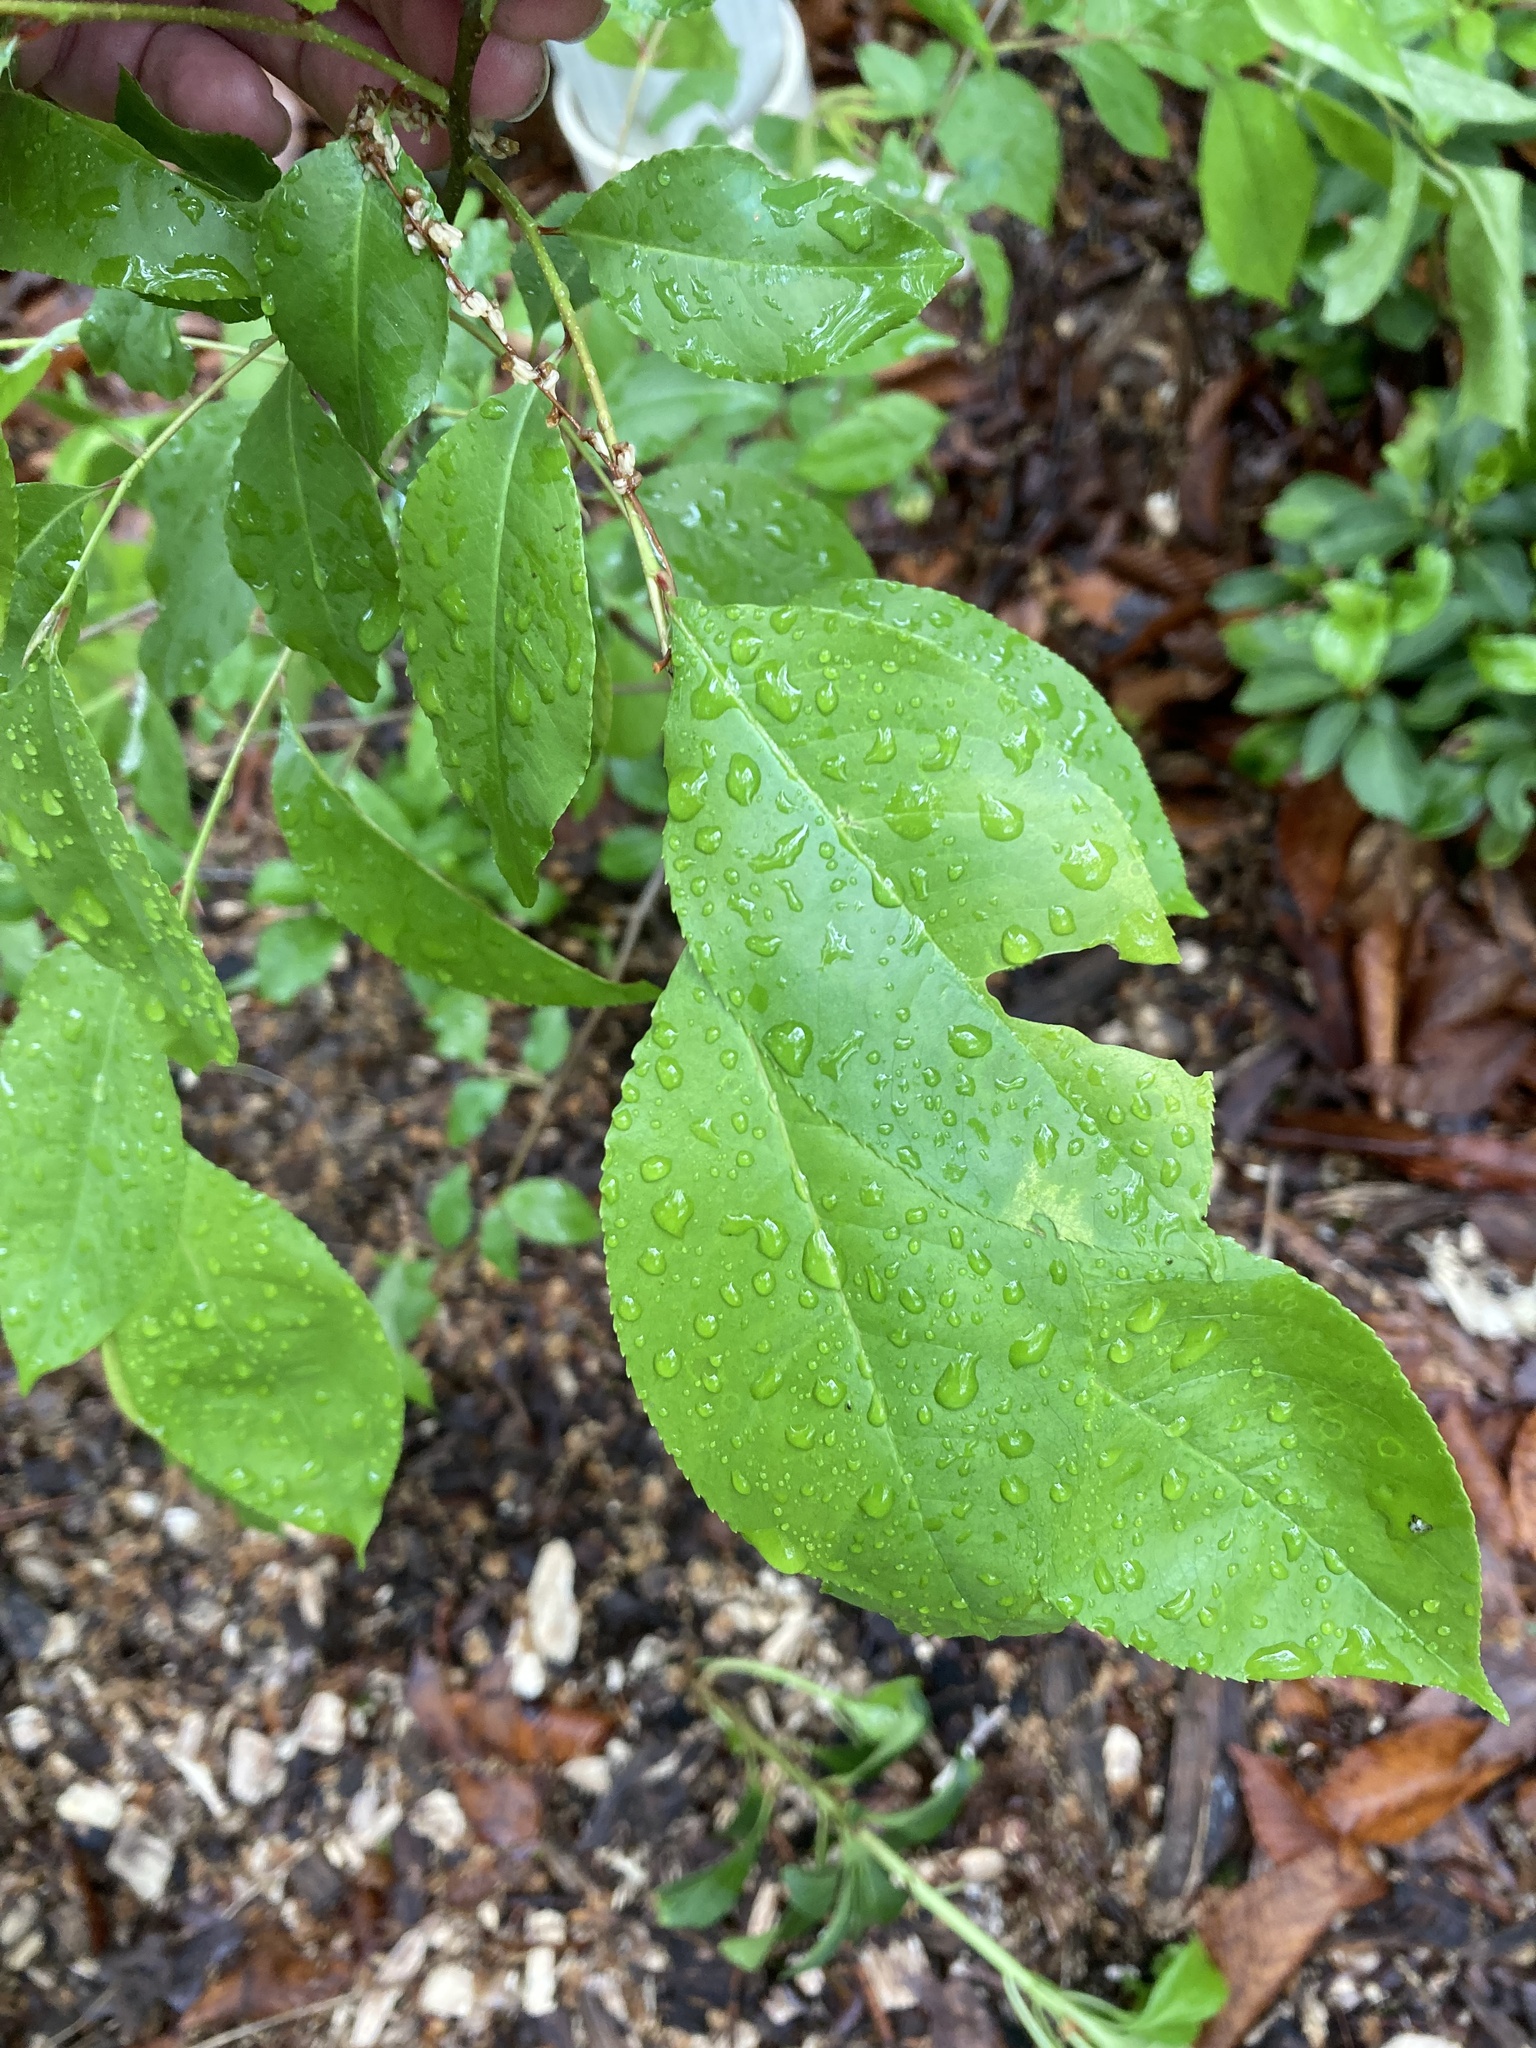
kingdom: Plantae
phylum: Tracheophyta
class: Magnoliopsida
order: Rosales
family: Rosaceae
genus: Prunus
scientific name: Prunus serotina
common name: Black cherry
